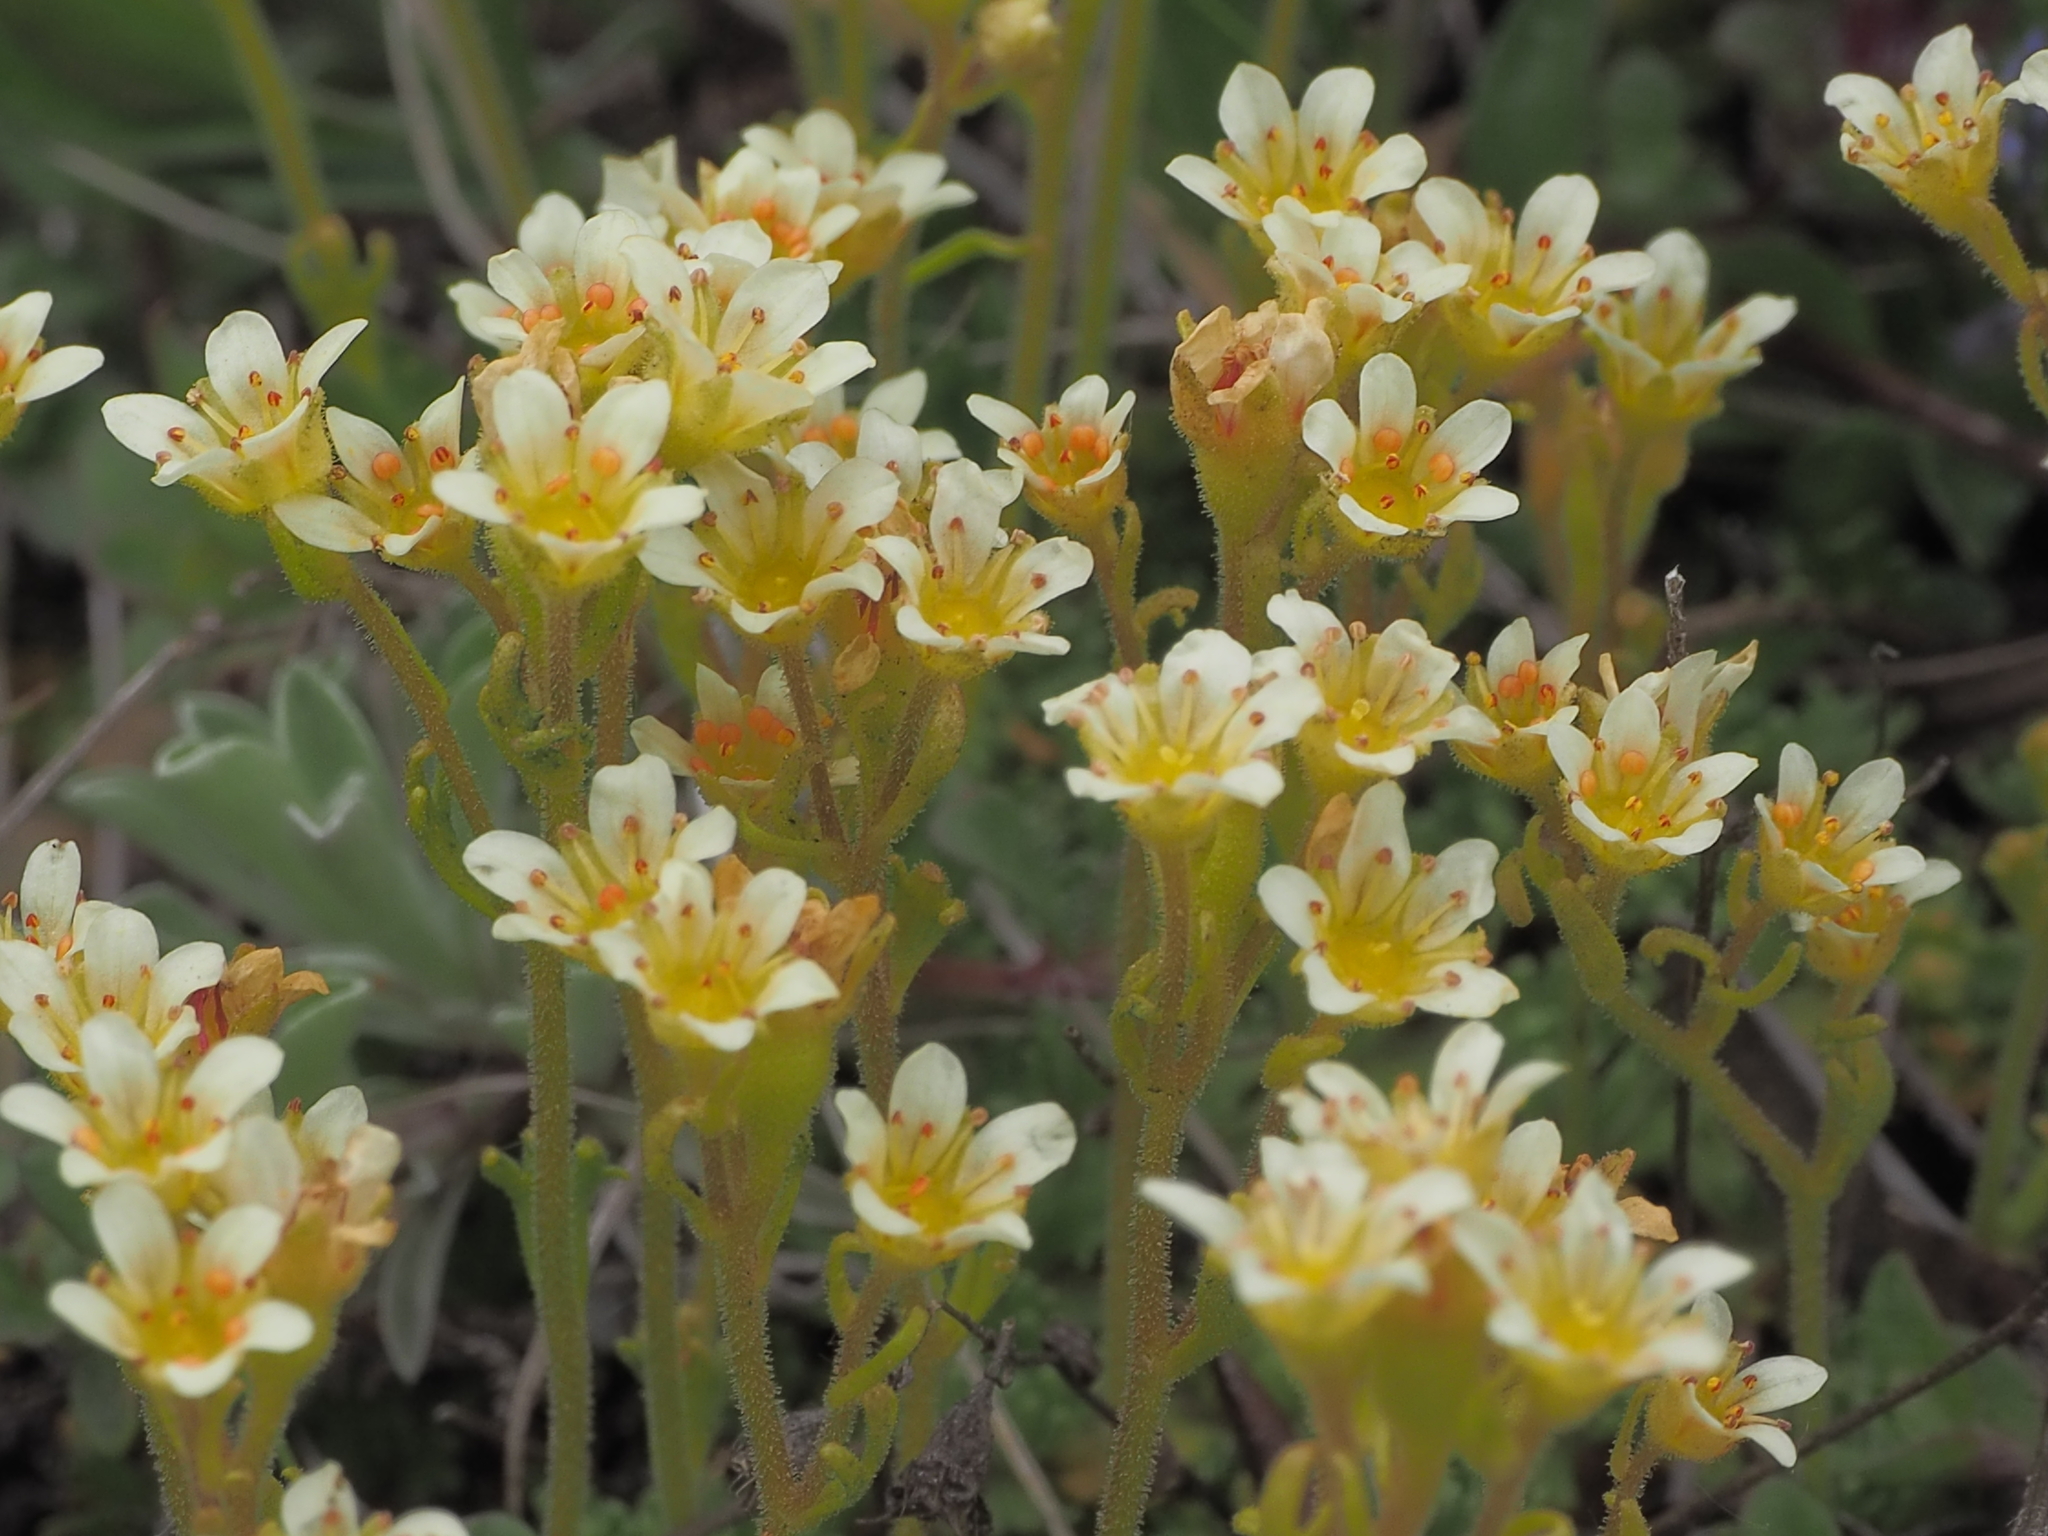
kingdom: Plantae
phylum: Tracheophyta
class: Magnoliopsida
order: Saxifragales
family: Saxifragaceae
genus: Saxifraga
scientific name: Saxifraga moschata
